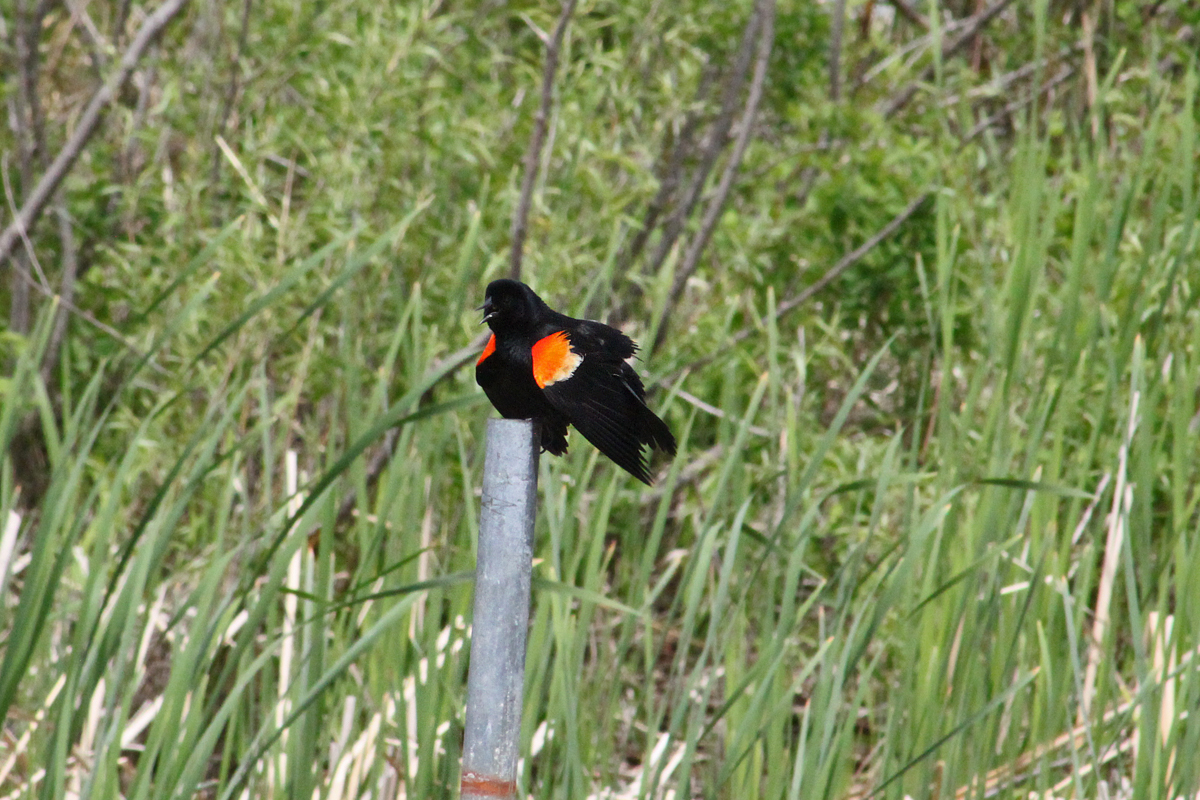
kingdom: Animalia
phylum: Chordata
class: Aves
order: Passeriformes
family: Icteridae
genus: Agelaius
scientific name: Agelaius phoeniceus
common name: Red-winged blackbird
